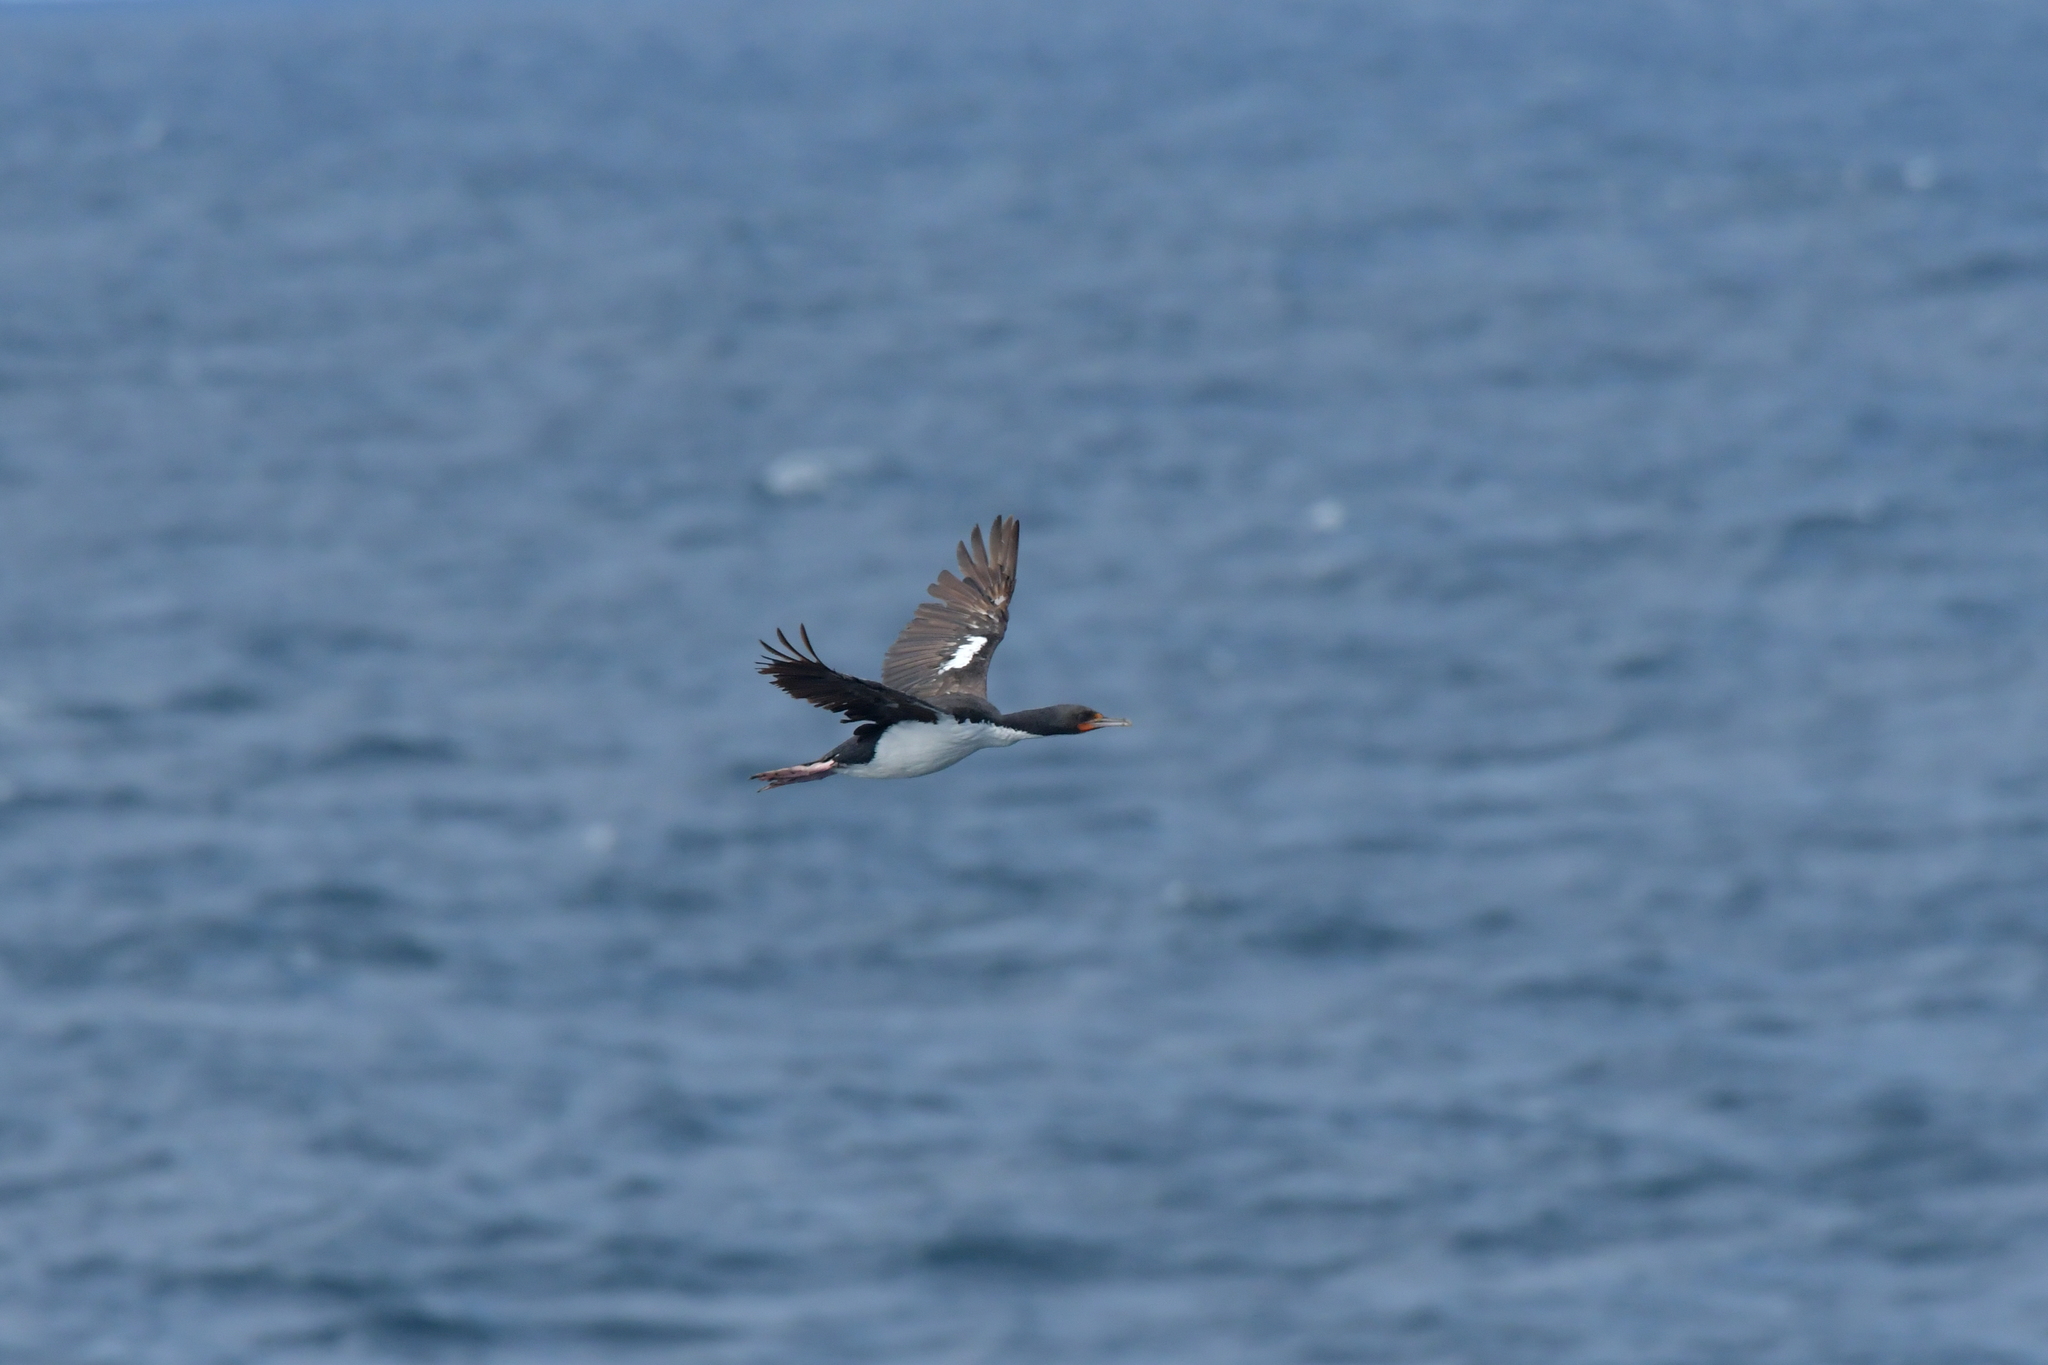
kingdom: Animalia
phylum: Chordata
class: Aves
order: Suliformes
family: Phalacrocoracidae
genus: Leucocarbo
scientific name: Leucocarbo onslowi
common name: Chatham shag
